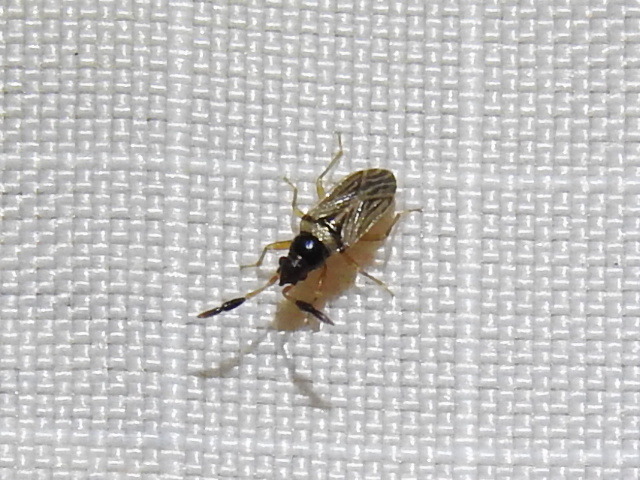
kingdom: Animalia
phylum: Arthropoda
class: Insecta
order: Hemiptera
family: Rhyparochromidae
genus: Ptochiomera
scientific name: Ptochiomera nodosa
